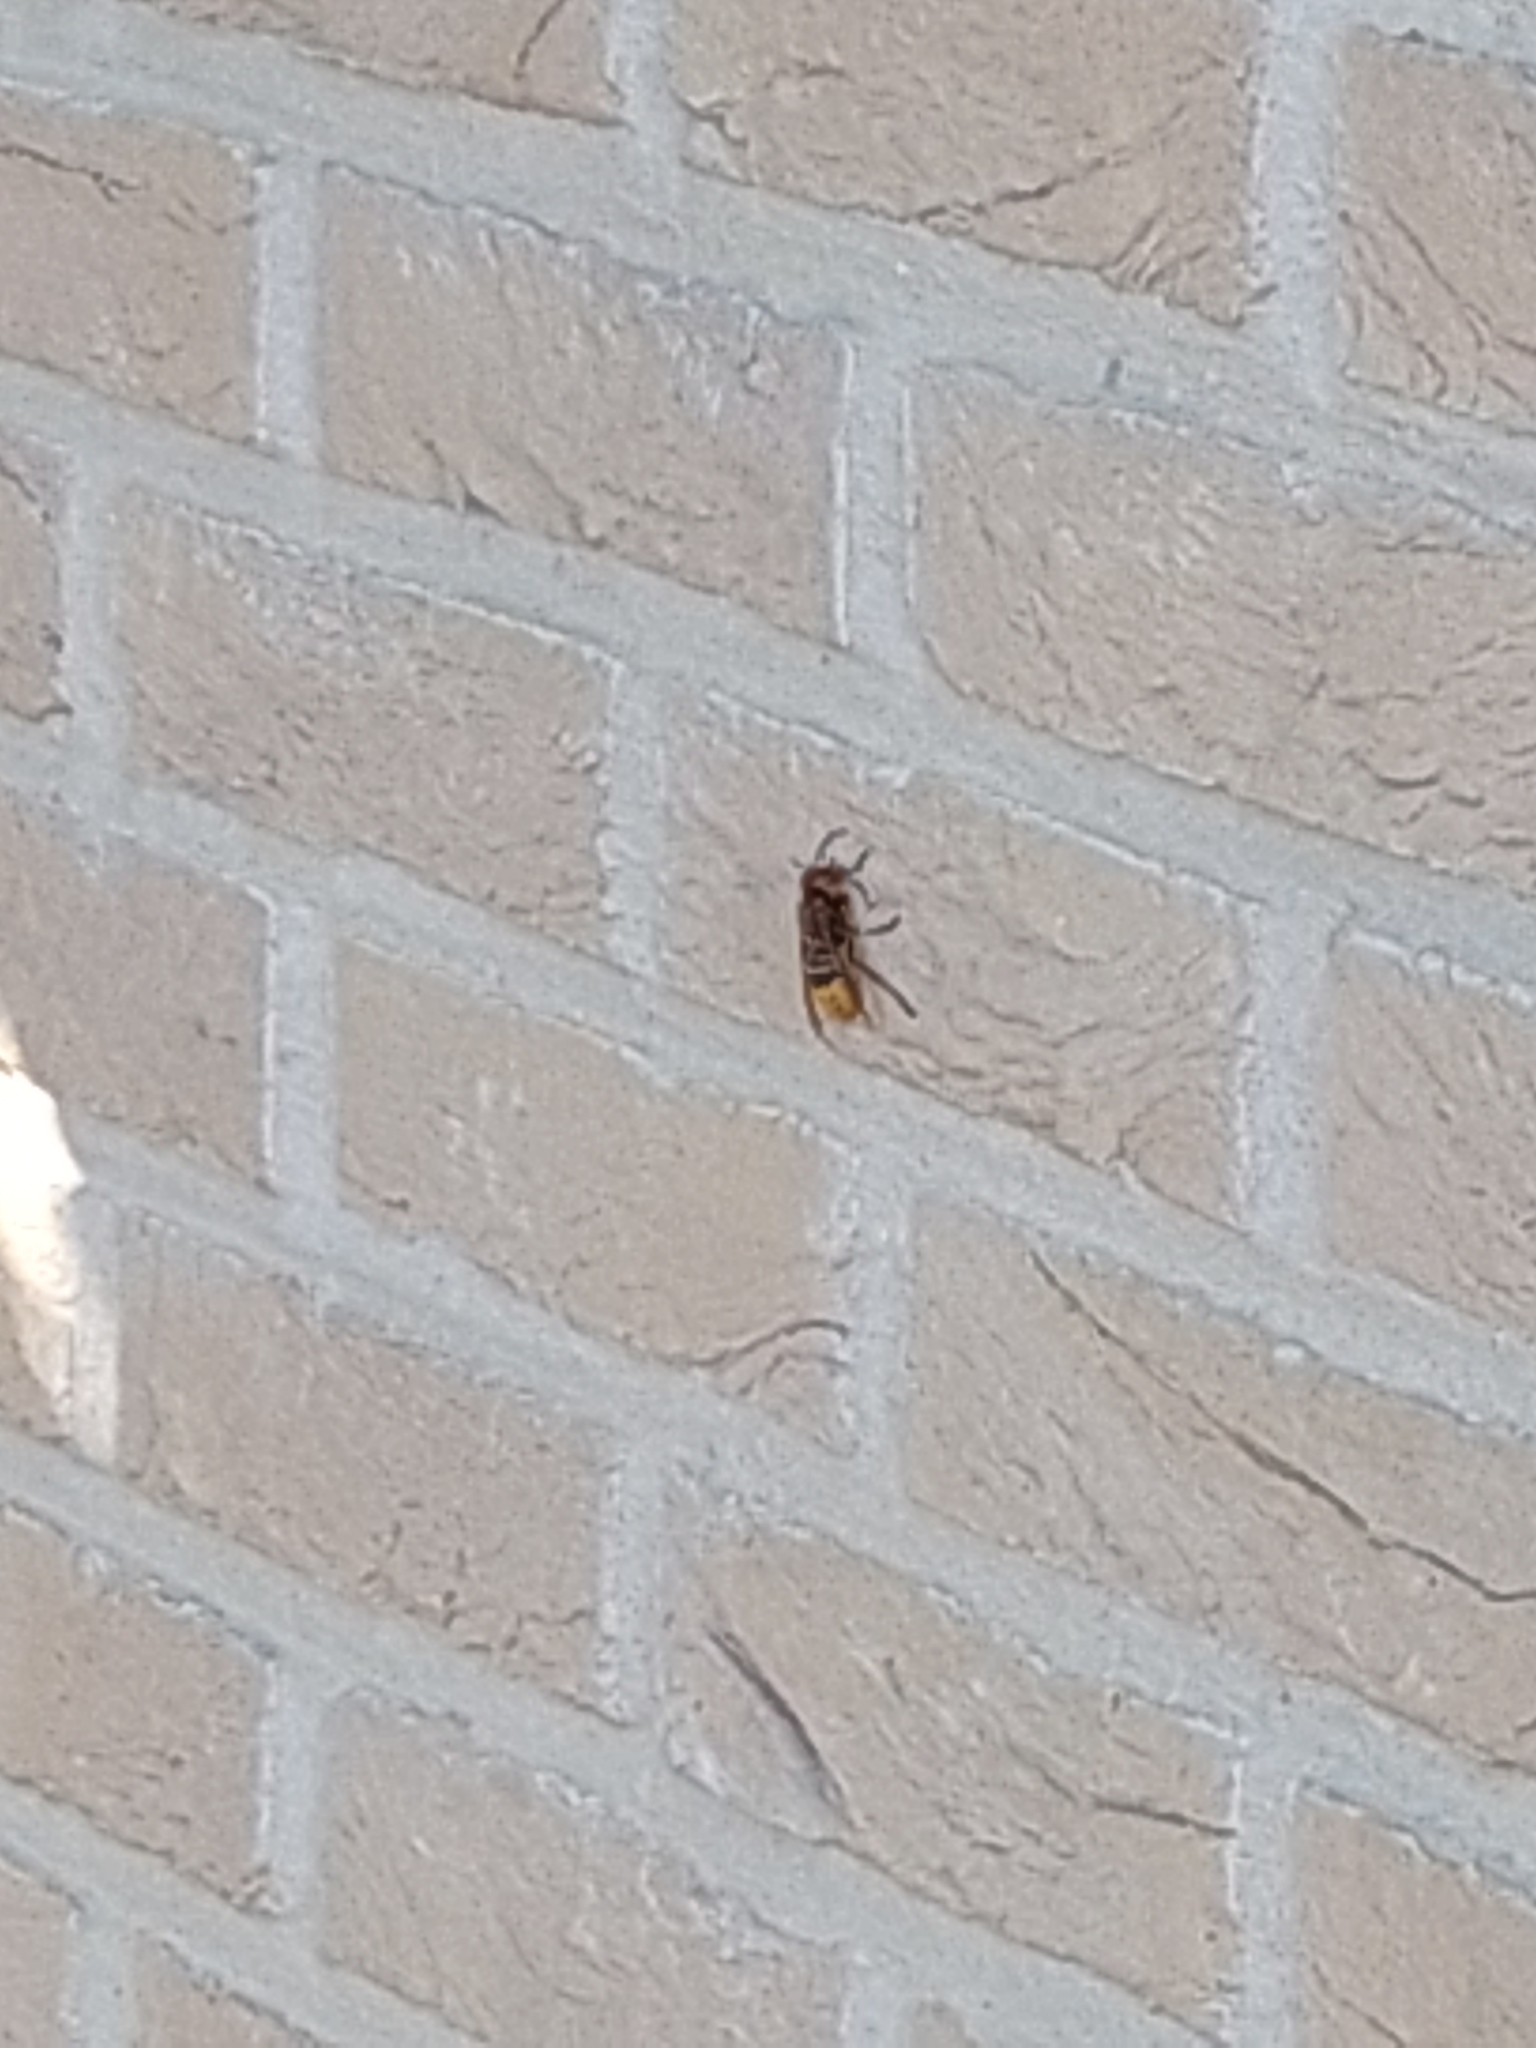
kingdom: Animalia
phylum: Arthropoda
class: Insecta
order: Hymenoptera
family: Vespidae
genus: Vespa
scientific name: Vespa crabro
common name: Hornet
